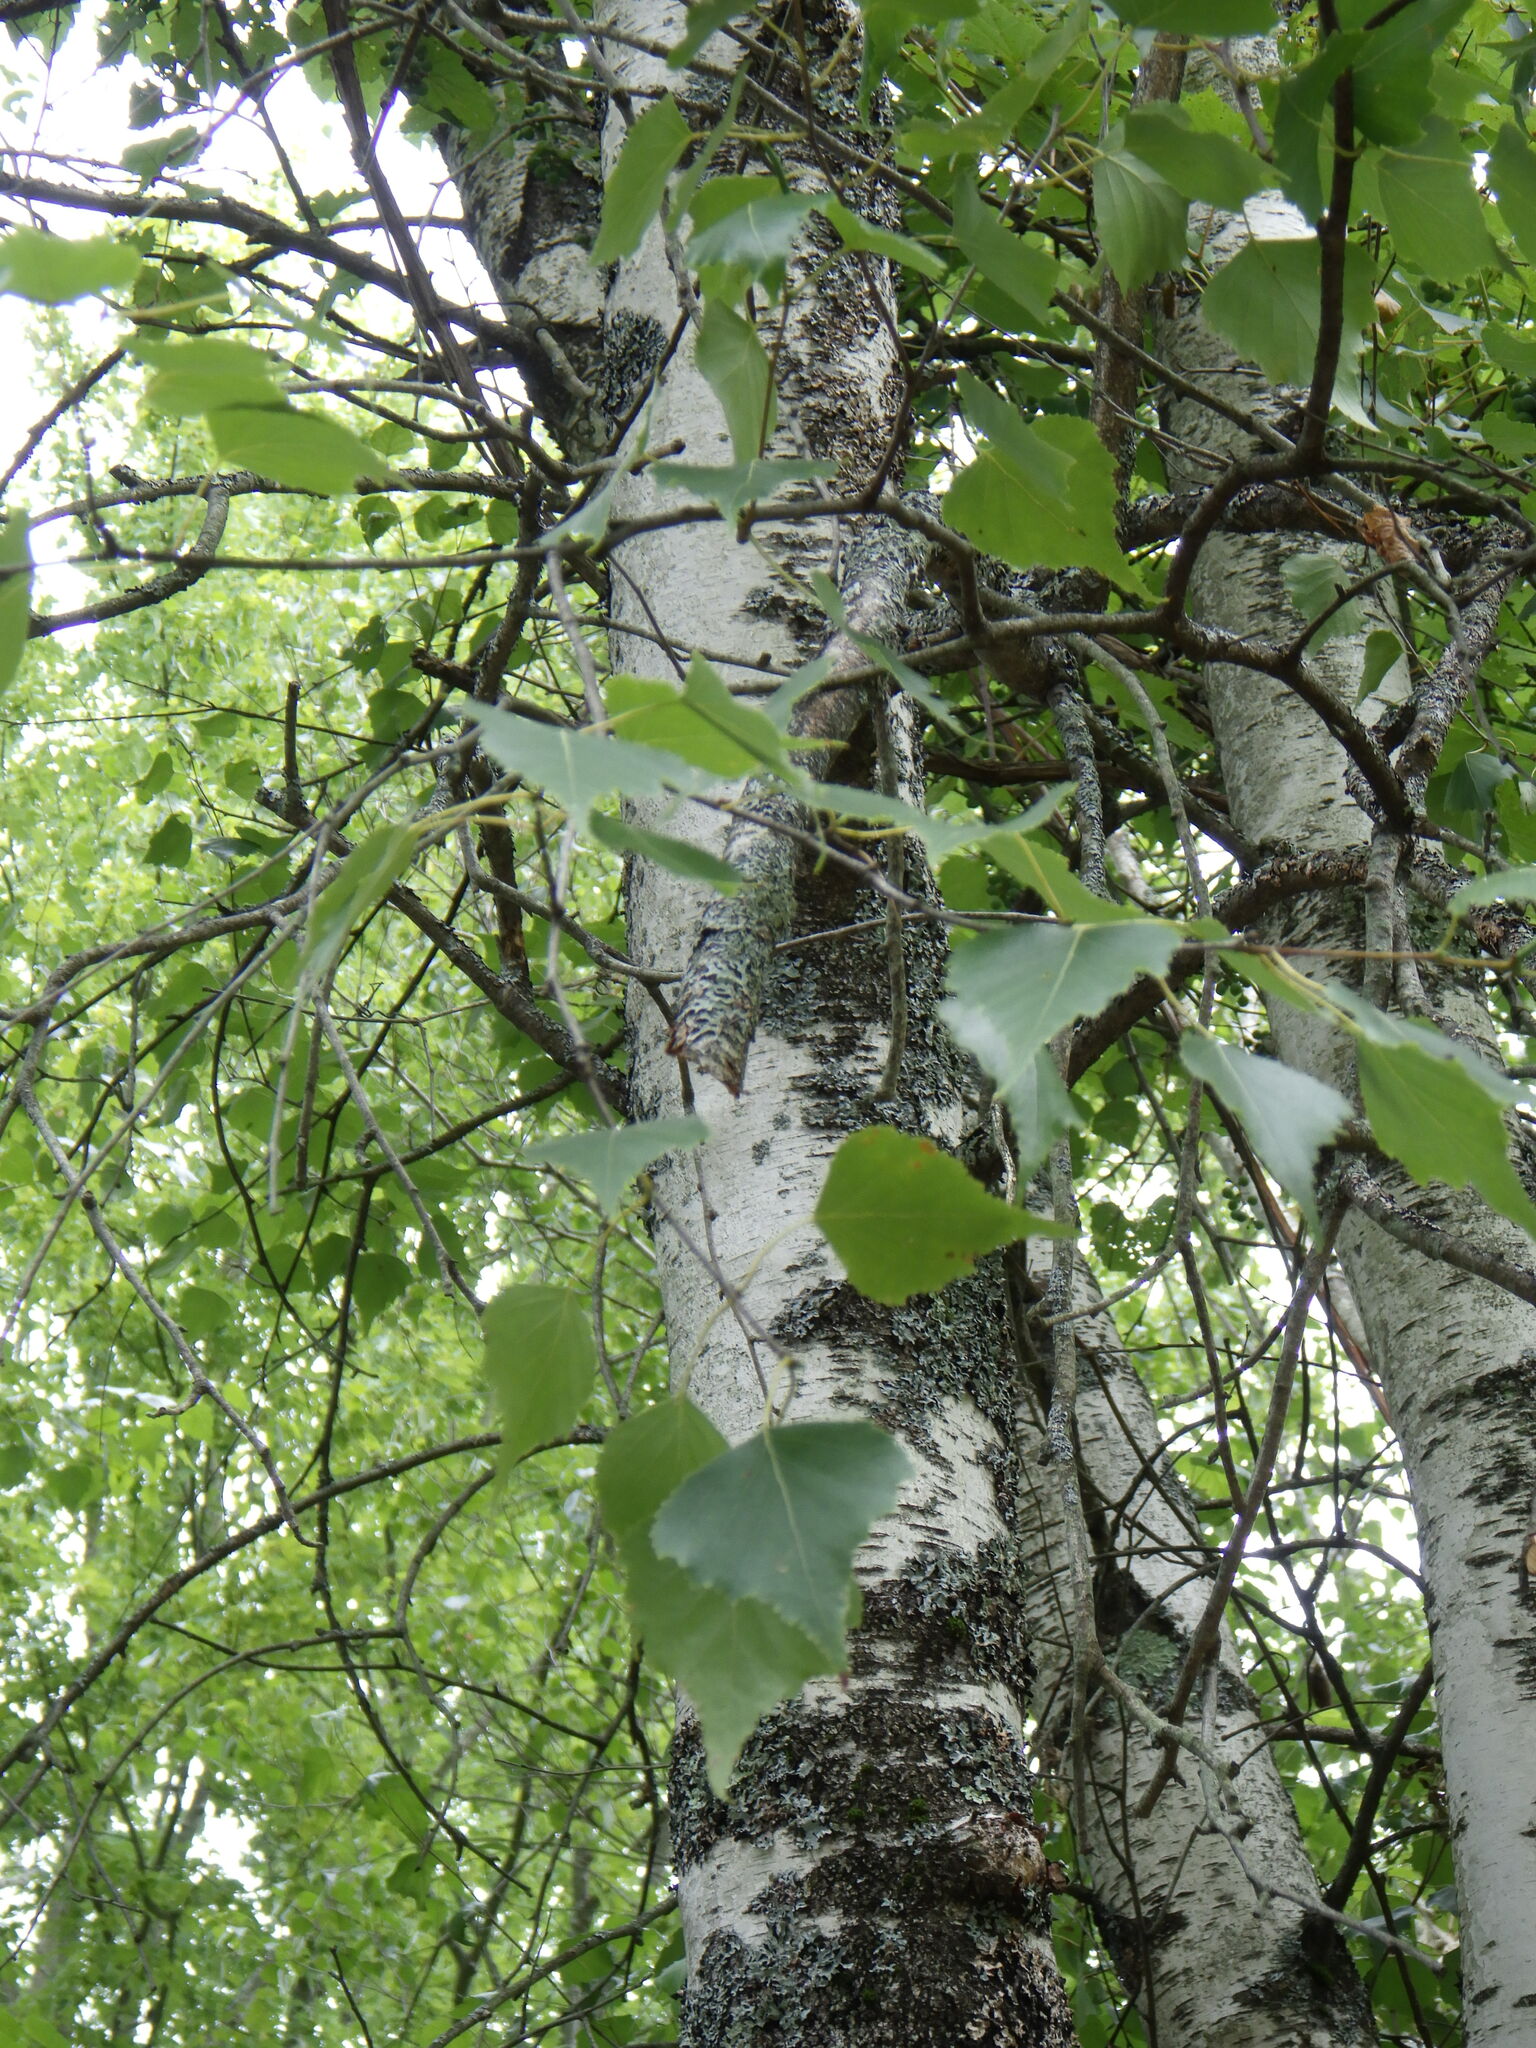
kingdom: Plantae
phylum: Tracheophyta
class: Magnoliopsida
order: Fagales
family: Betulaceae
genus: Betula
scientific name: Betula populifolia
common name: Fire birch
